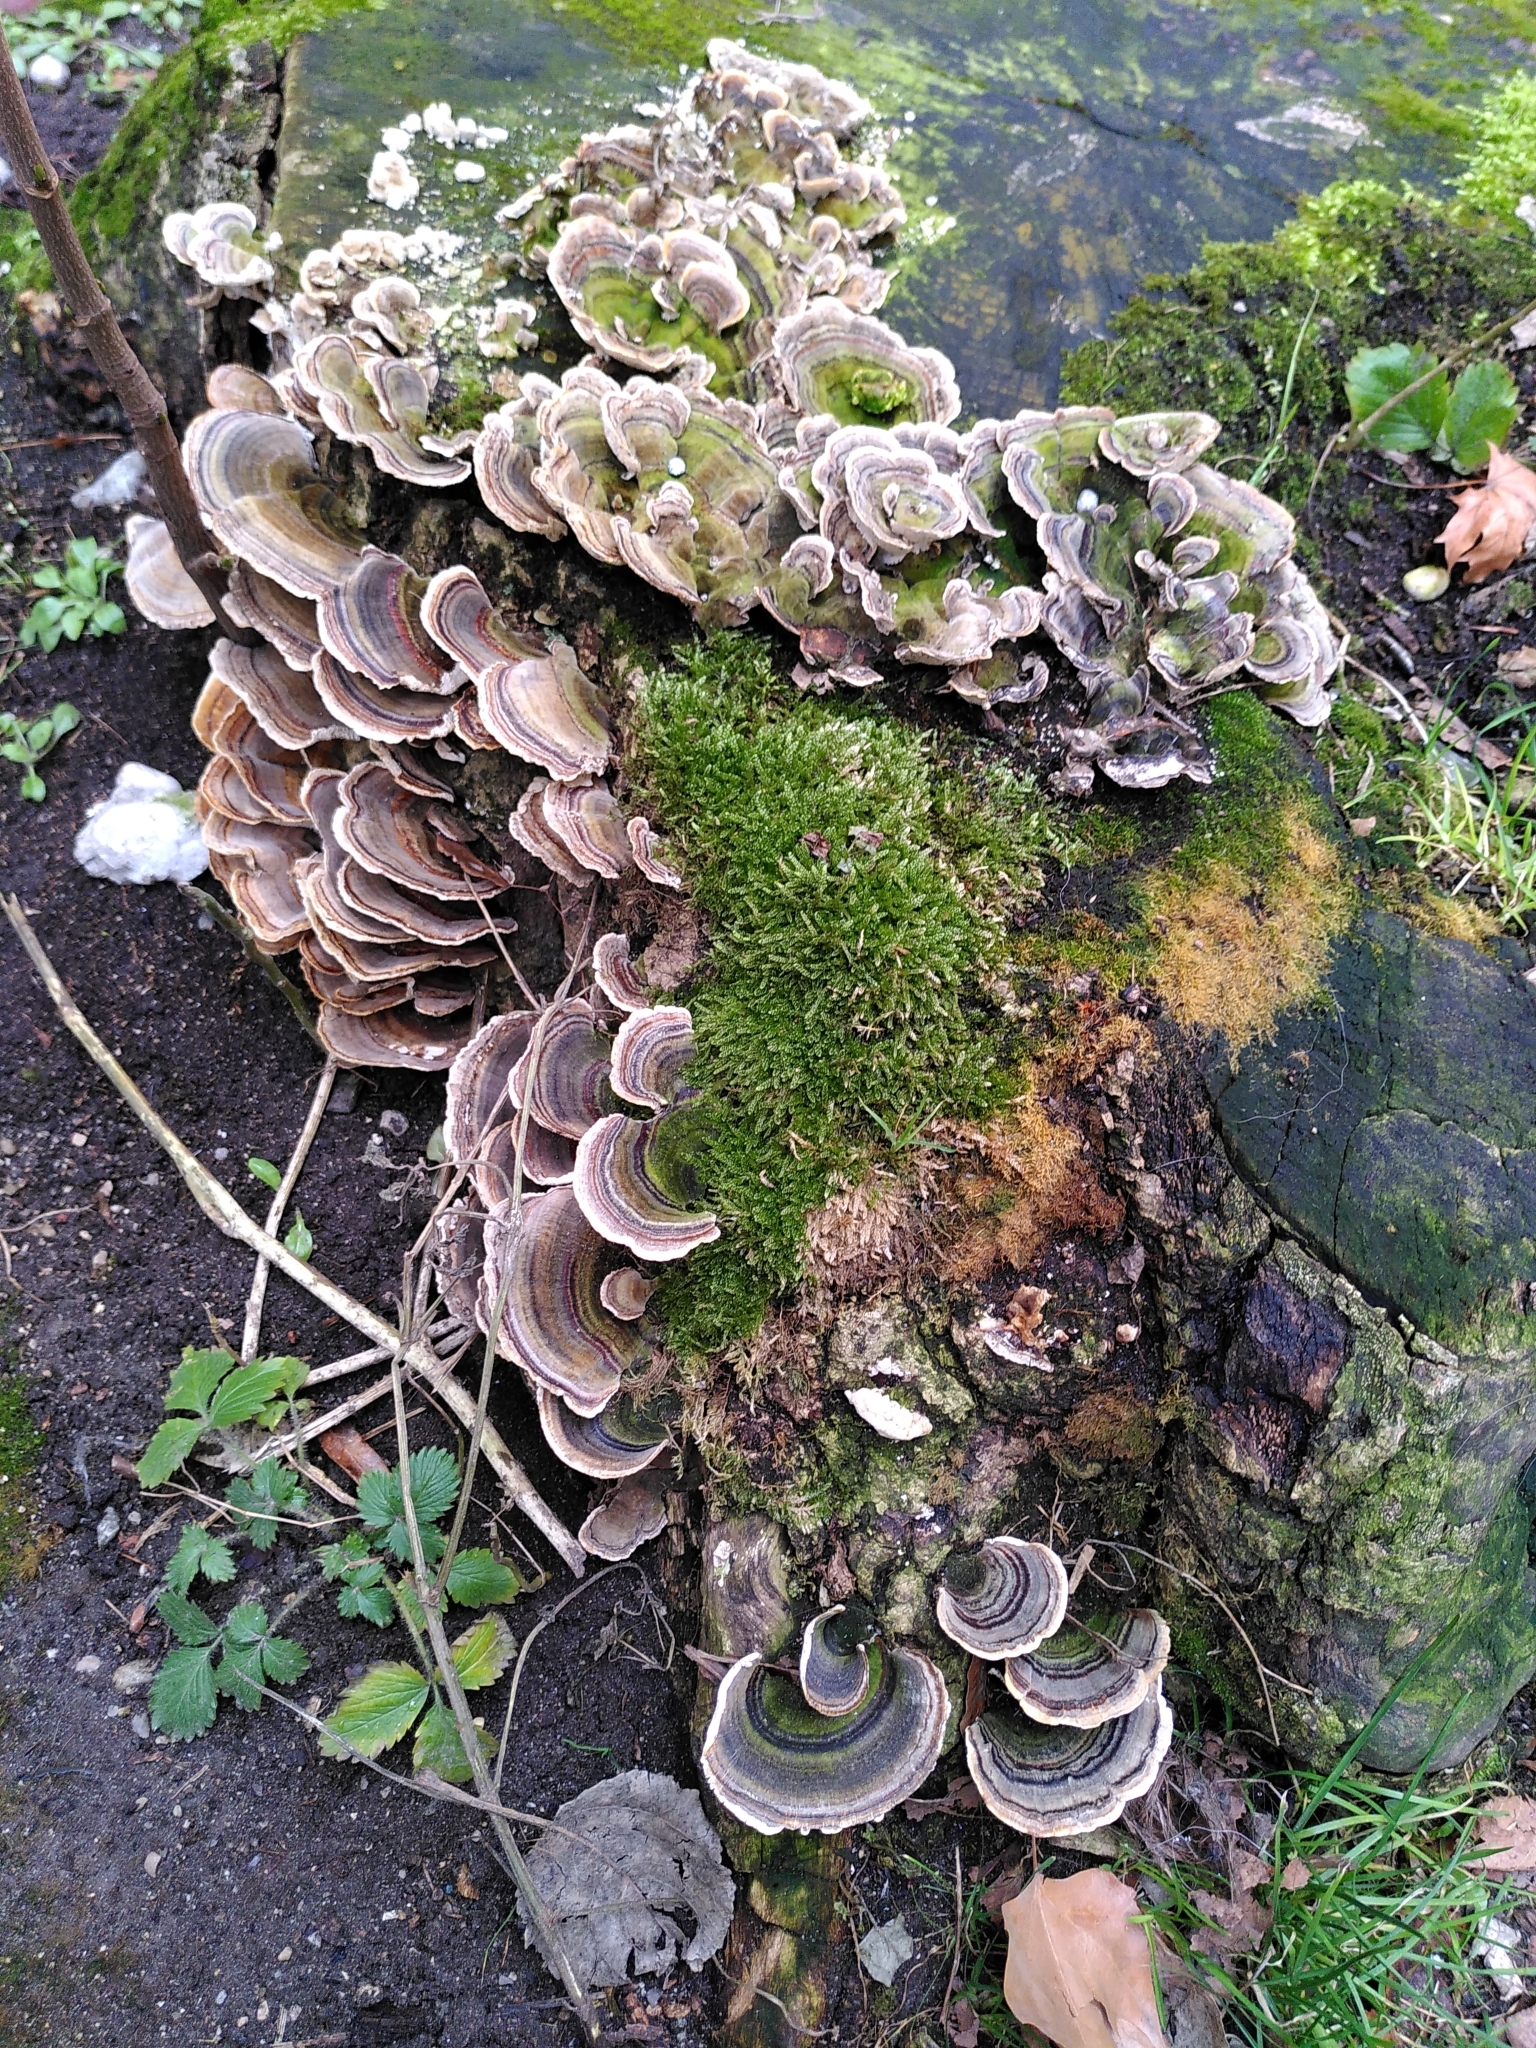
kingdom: Fungi
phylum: Basidiomycota
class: Agaricomycetes
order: Polyporales
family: Polyporaceae
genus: Trametes
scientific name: Trametes versicolor
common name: Turkeytail
